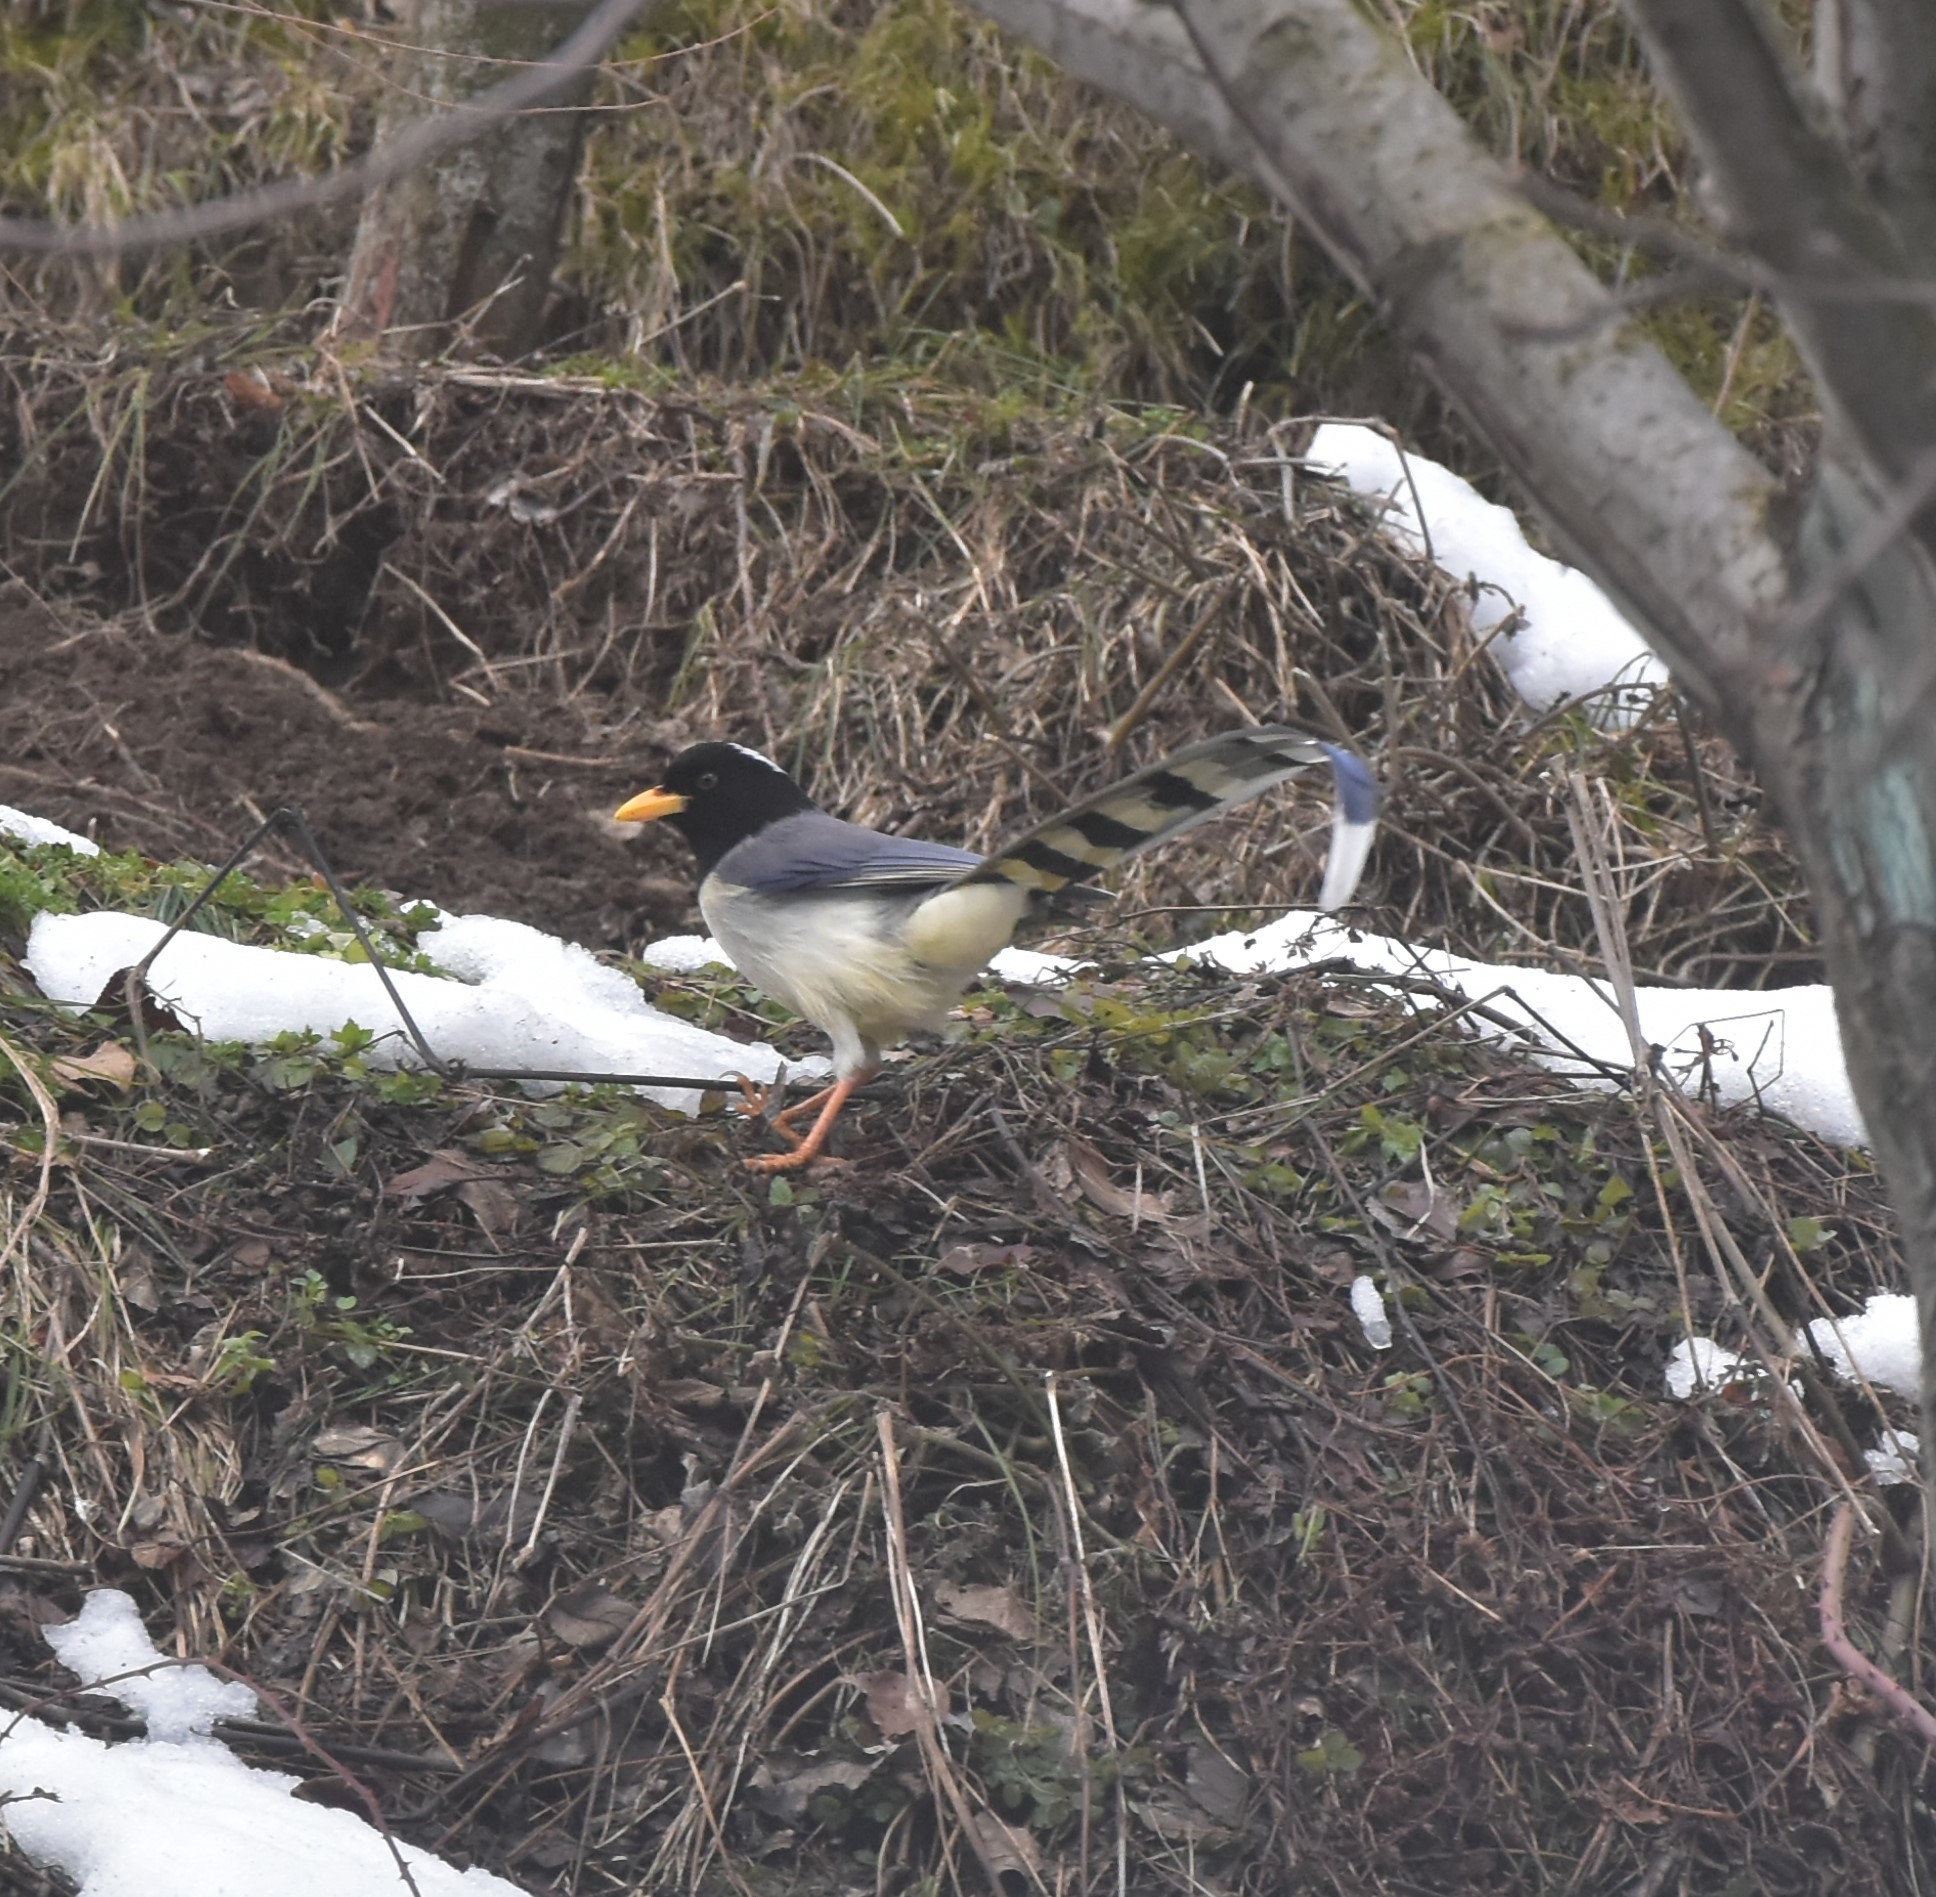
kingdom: Animalia
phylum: Chordata
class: Aves
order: Passeriformes
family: Corvidae
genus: Urocissa
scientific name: Urocissa flavirostris
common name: Yellow-billed blue magpie
